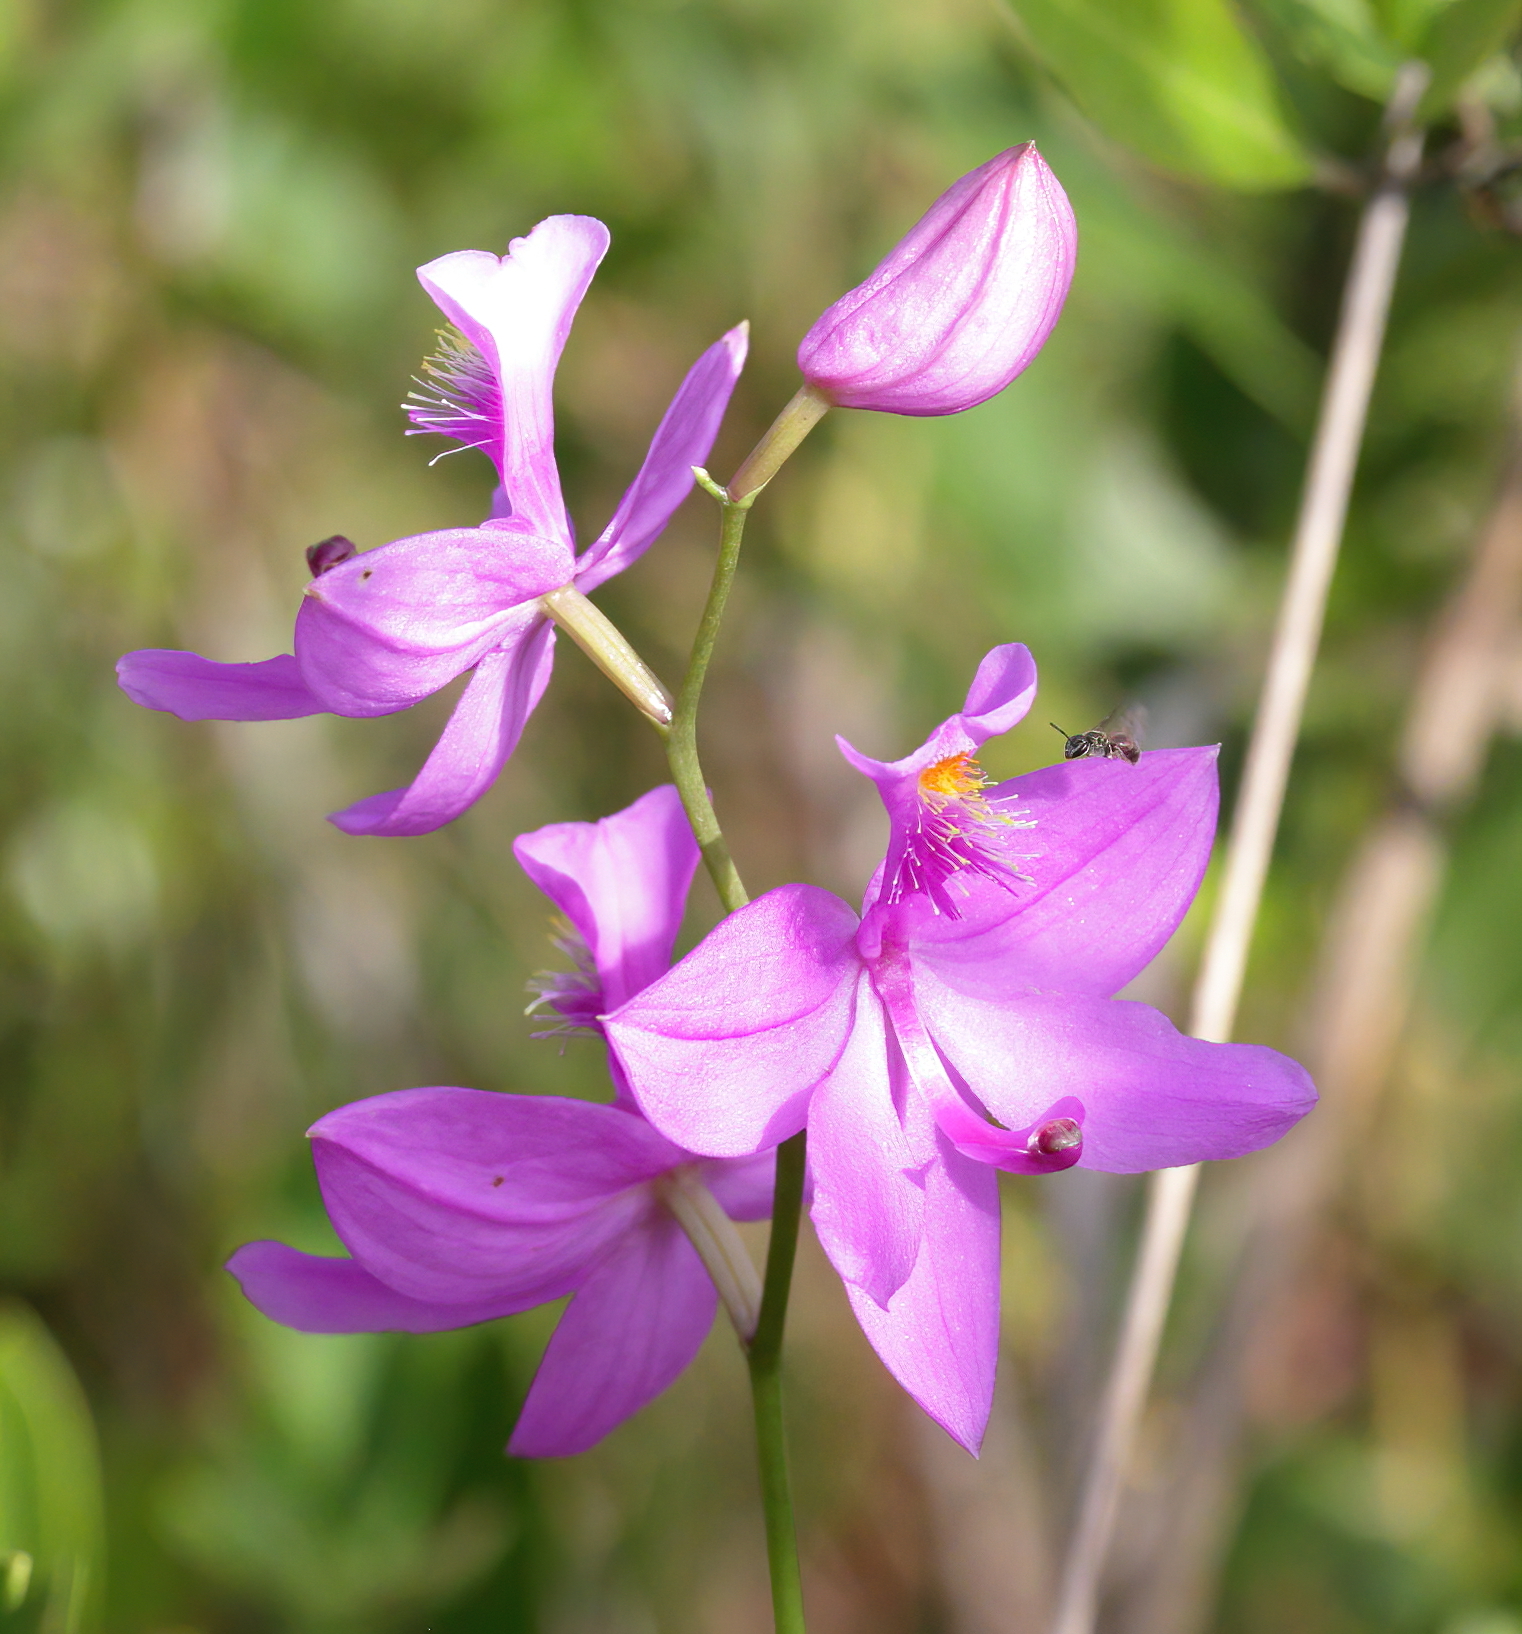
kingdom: Plantae
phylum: Tracheophyta
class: Liliopsida
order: Asparagales
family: Orchidaceae
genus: Calopogon
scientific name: Calopogon tuberosus
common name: Grass-pink
